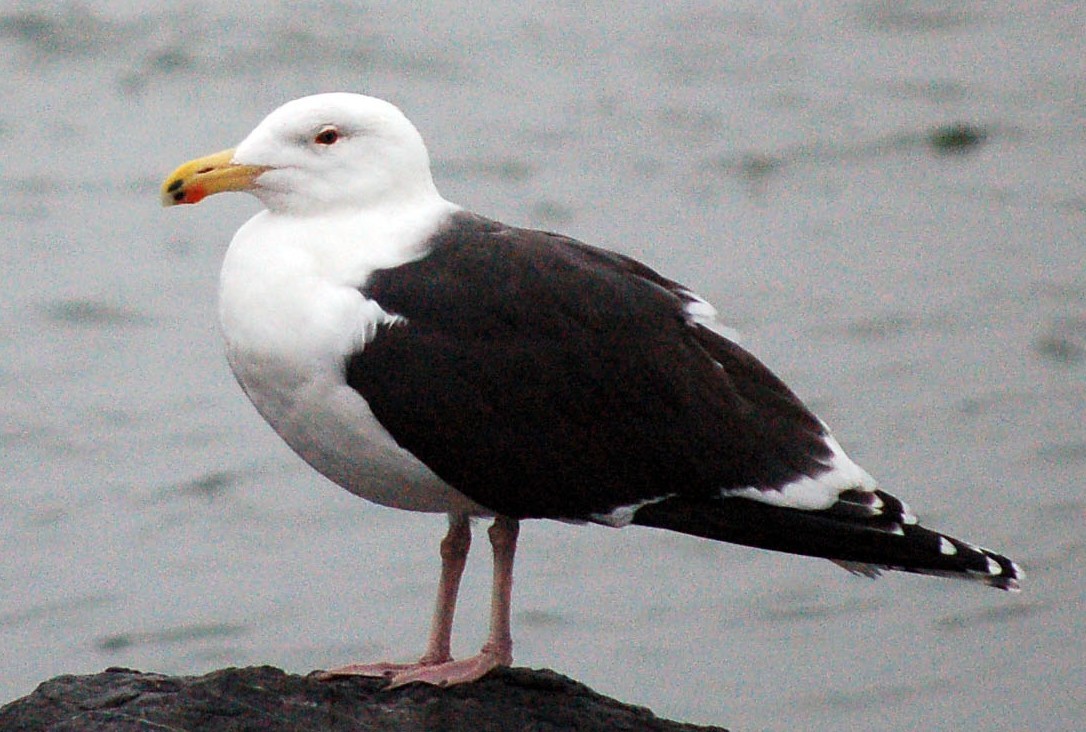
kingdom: Animalia
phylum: Chordata
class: Aves
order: Charadriiformes
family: Laridae
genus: Larus
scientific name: Larus marinus
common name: Great black-backed gull
